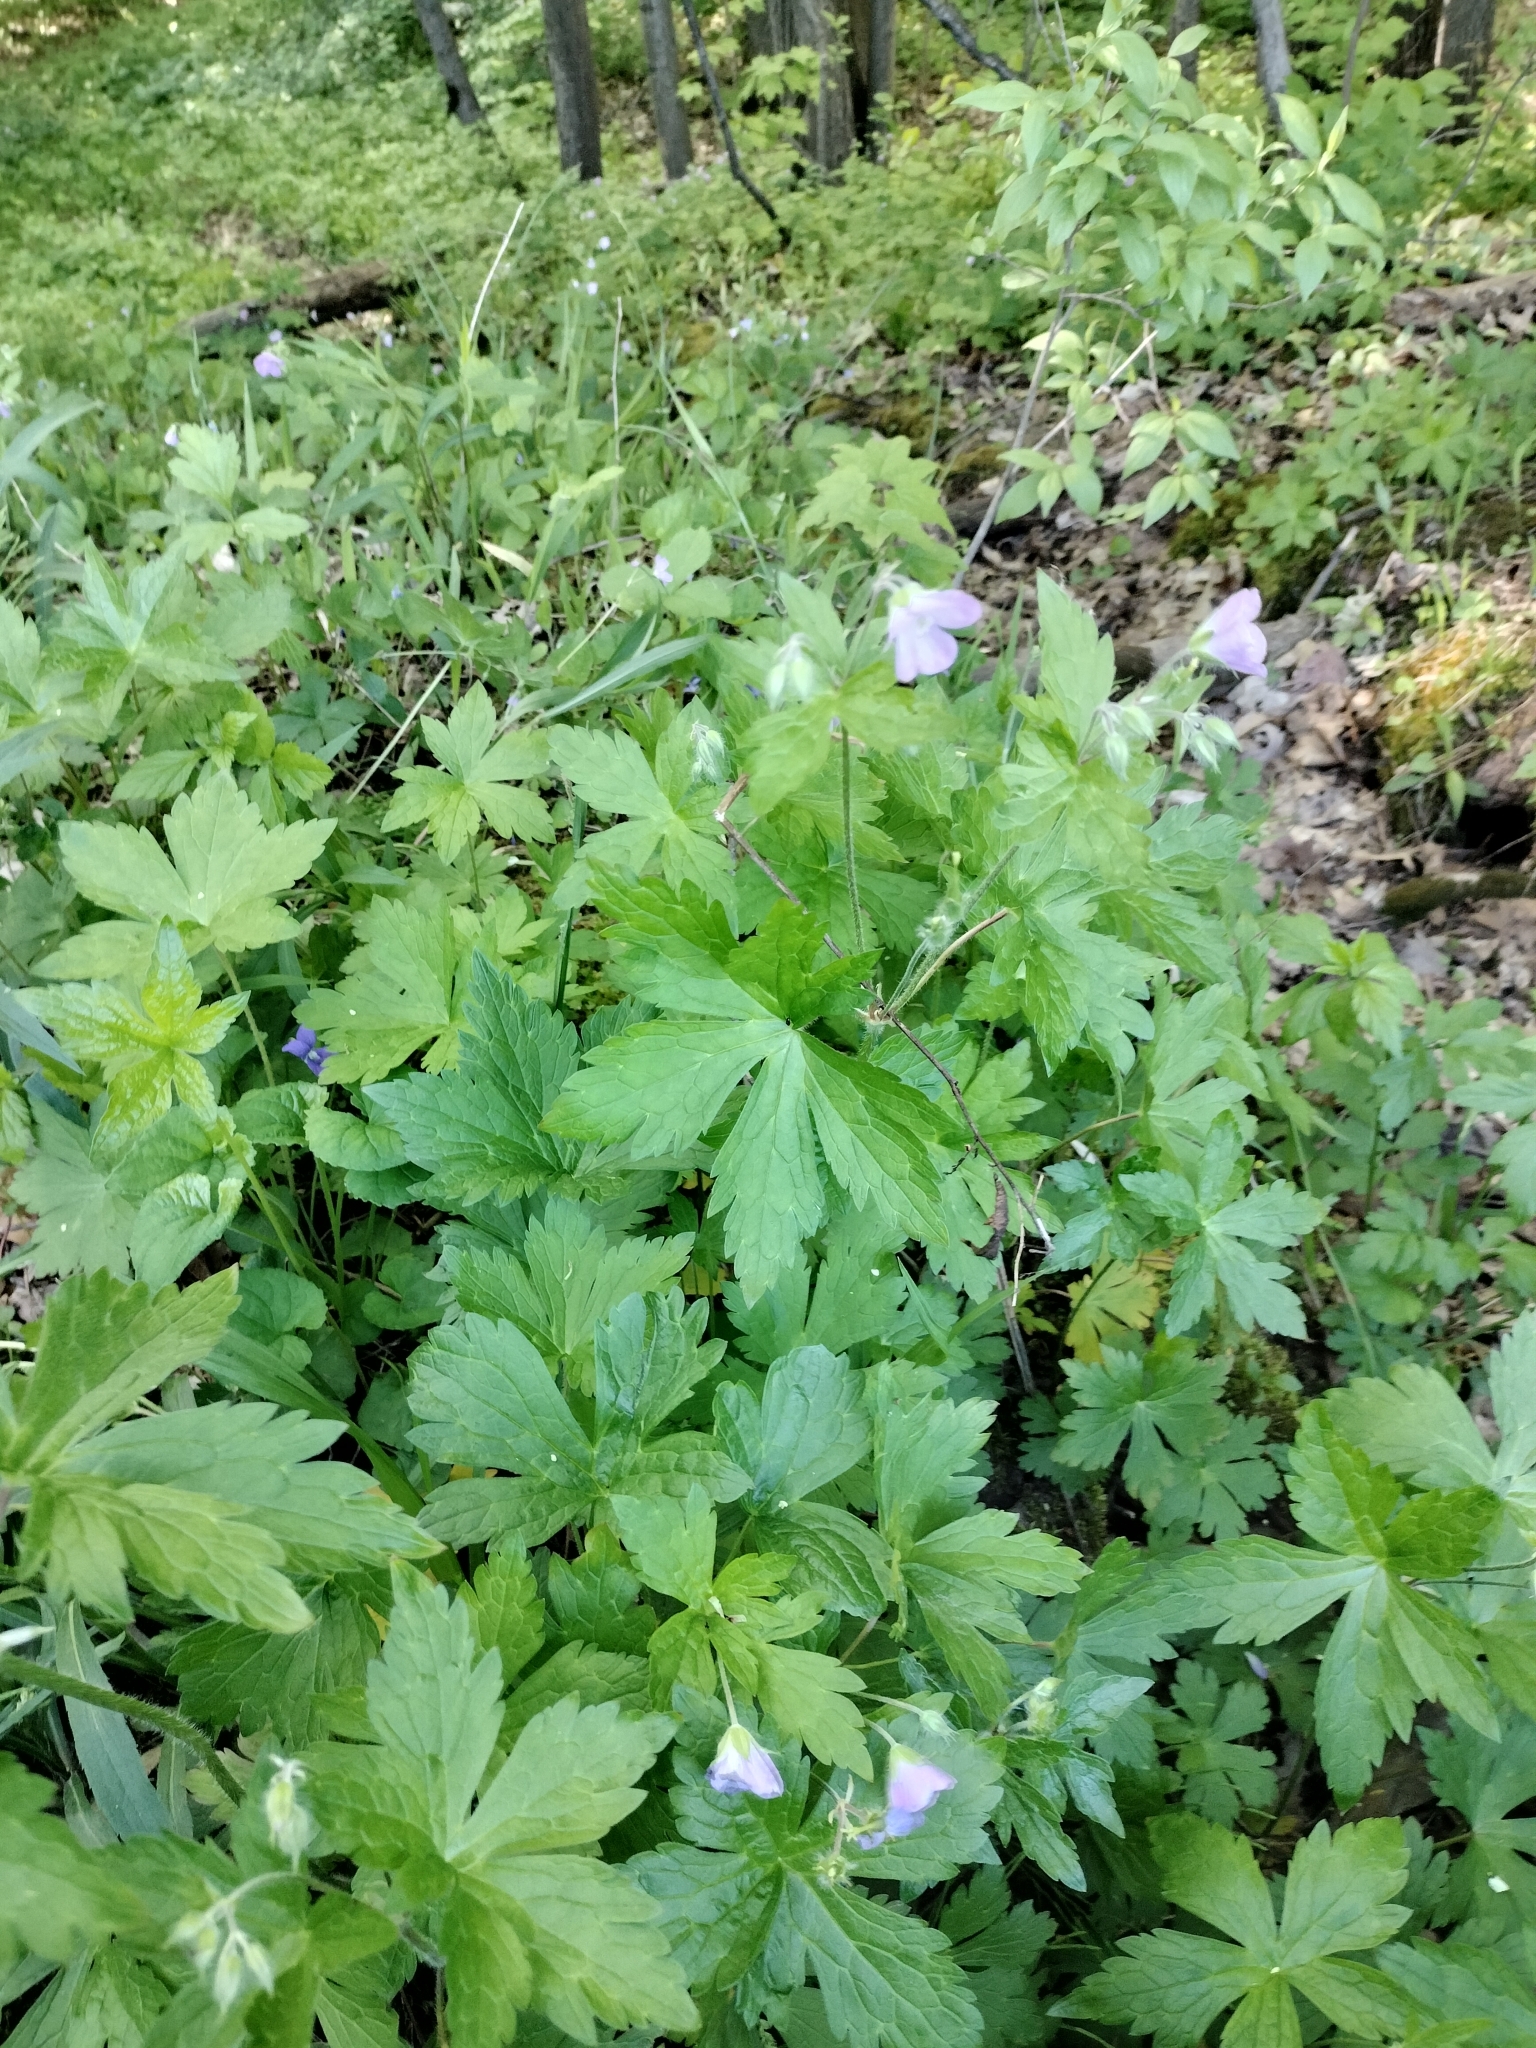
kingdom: Plantae
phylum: Tracheophyta
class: Magnoliopsida
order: Geraniales
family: Geraniaceae
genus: Geranium
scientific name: Geranium maculatum
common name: Spotted geranium
